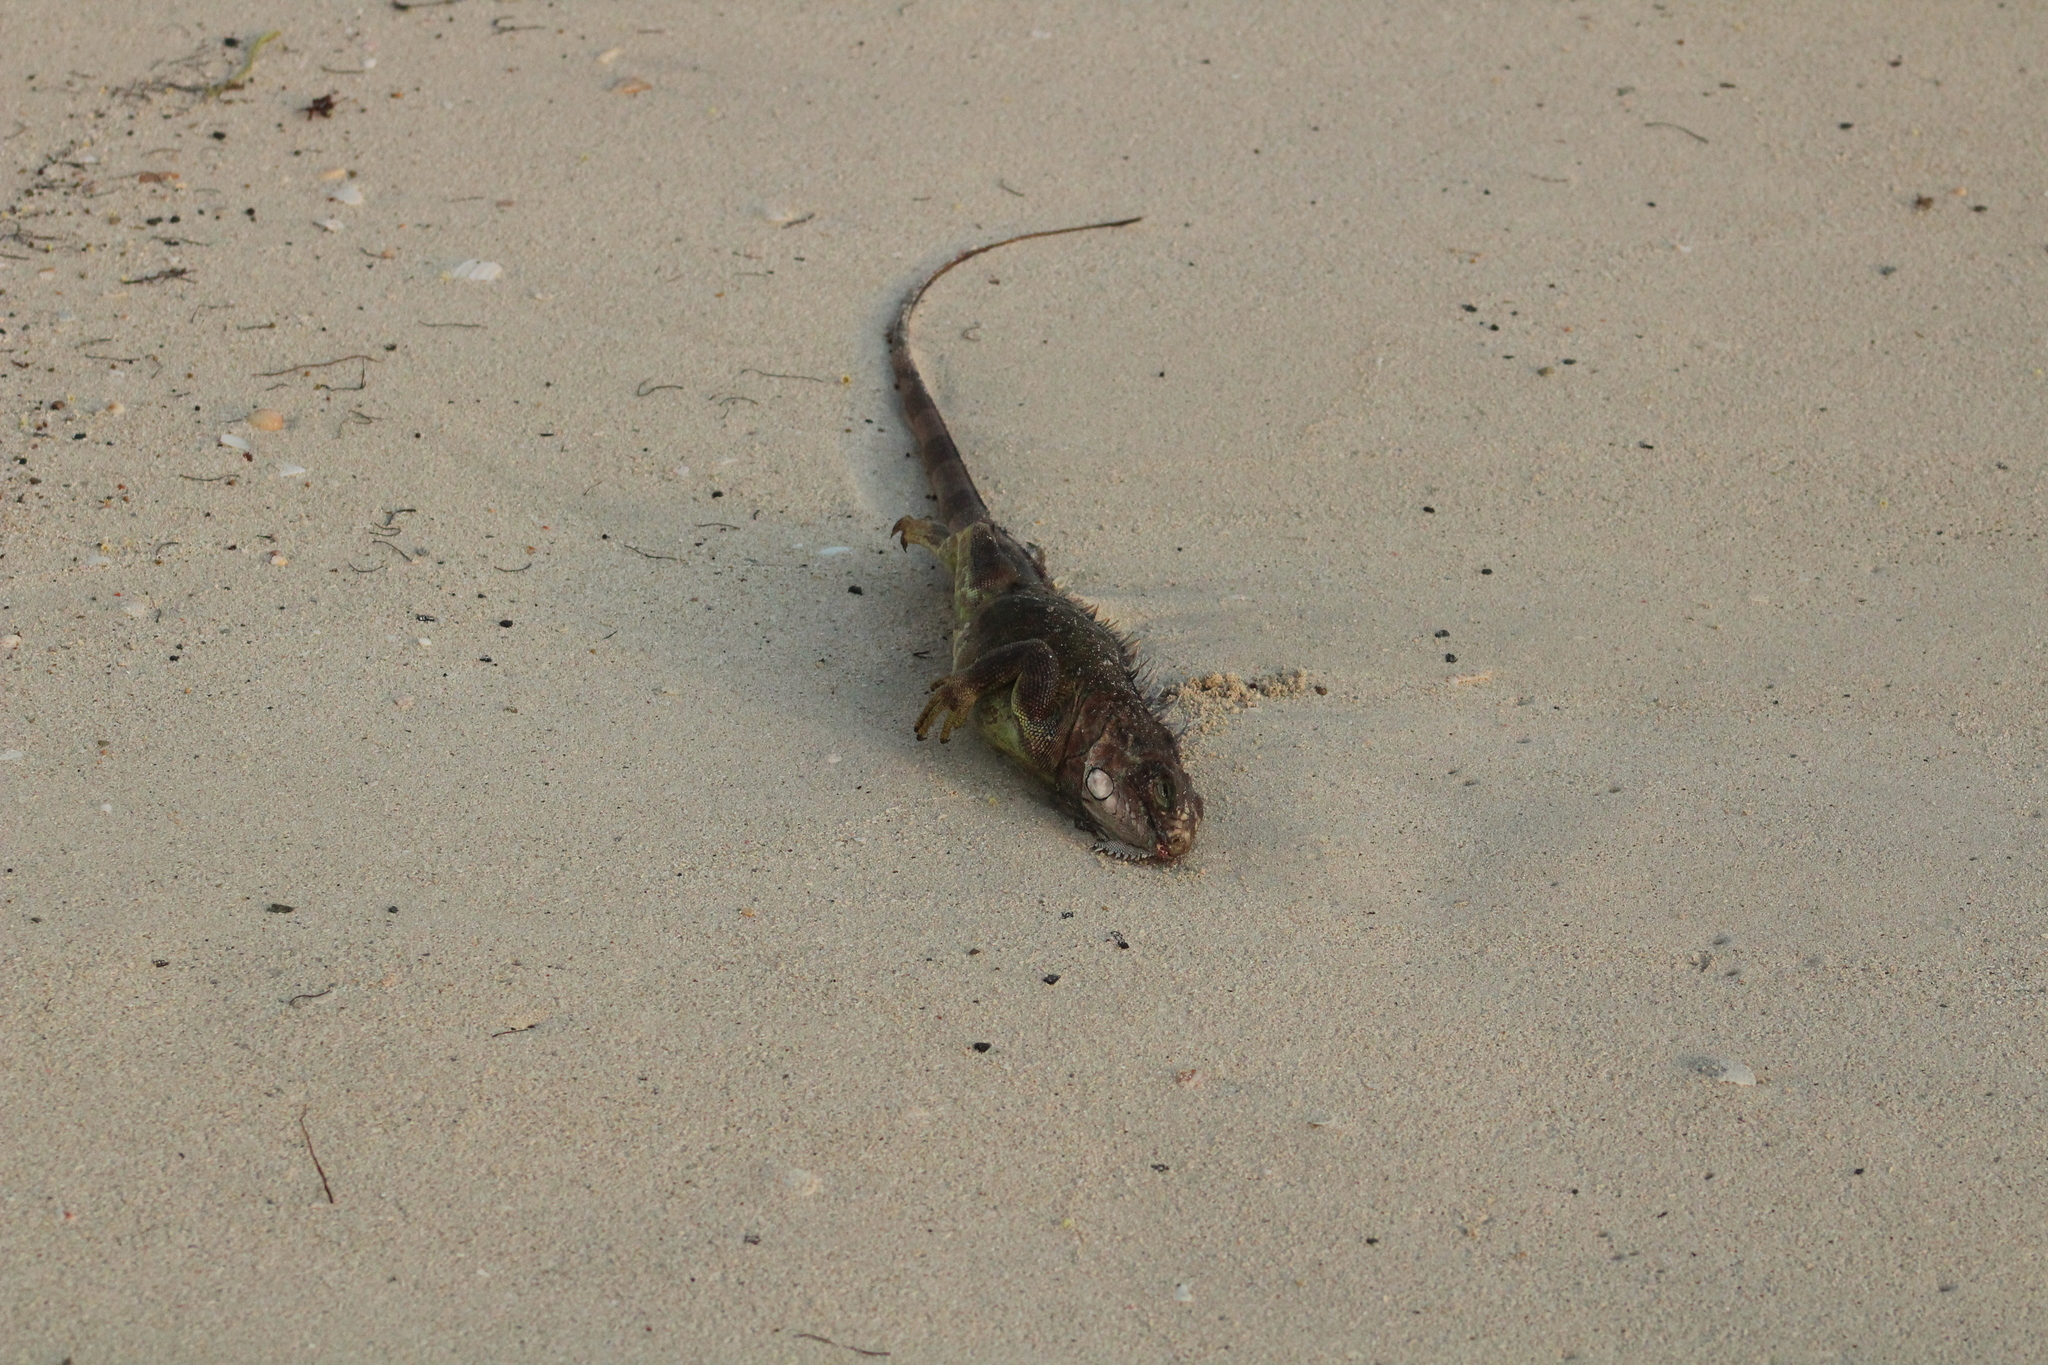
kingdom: Animalia
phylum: Chordata
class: Squamata
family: Iguanidae
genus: Iguana
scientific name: Iguana iguana
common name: Green iguana
